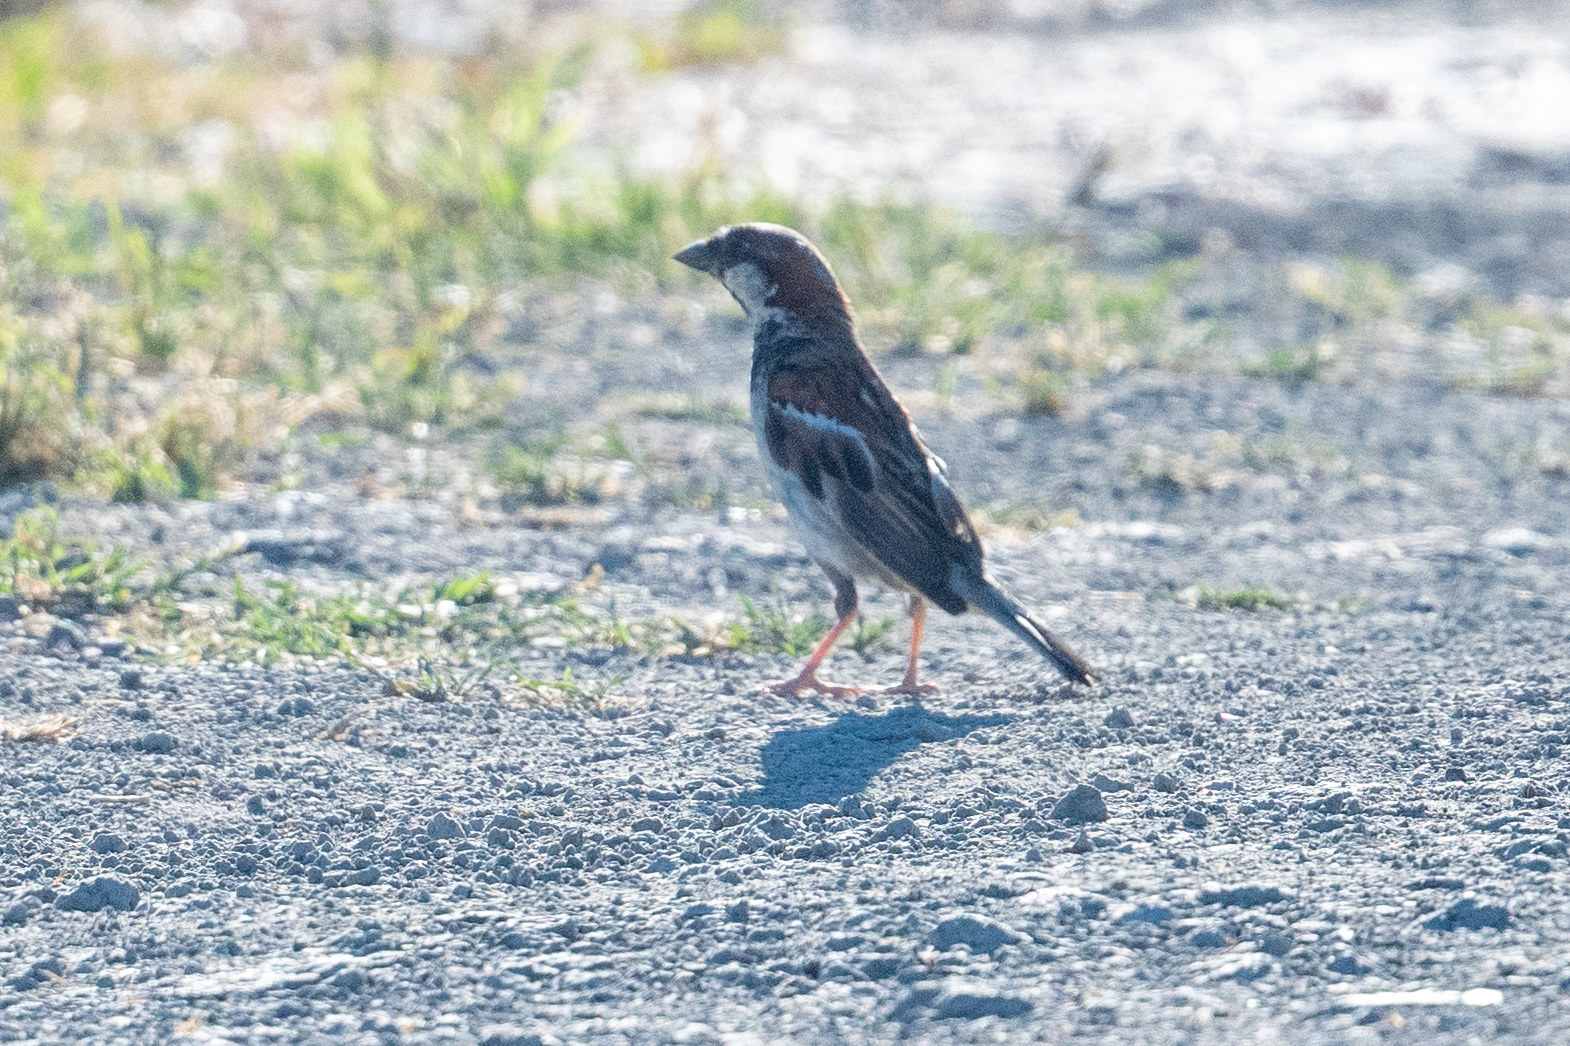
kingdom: Animalia
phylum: Chordata
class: Aves
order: Passeriformes
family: Passeridae
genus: Passer
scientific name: Passer domesticus
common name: House sparrow
